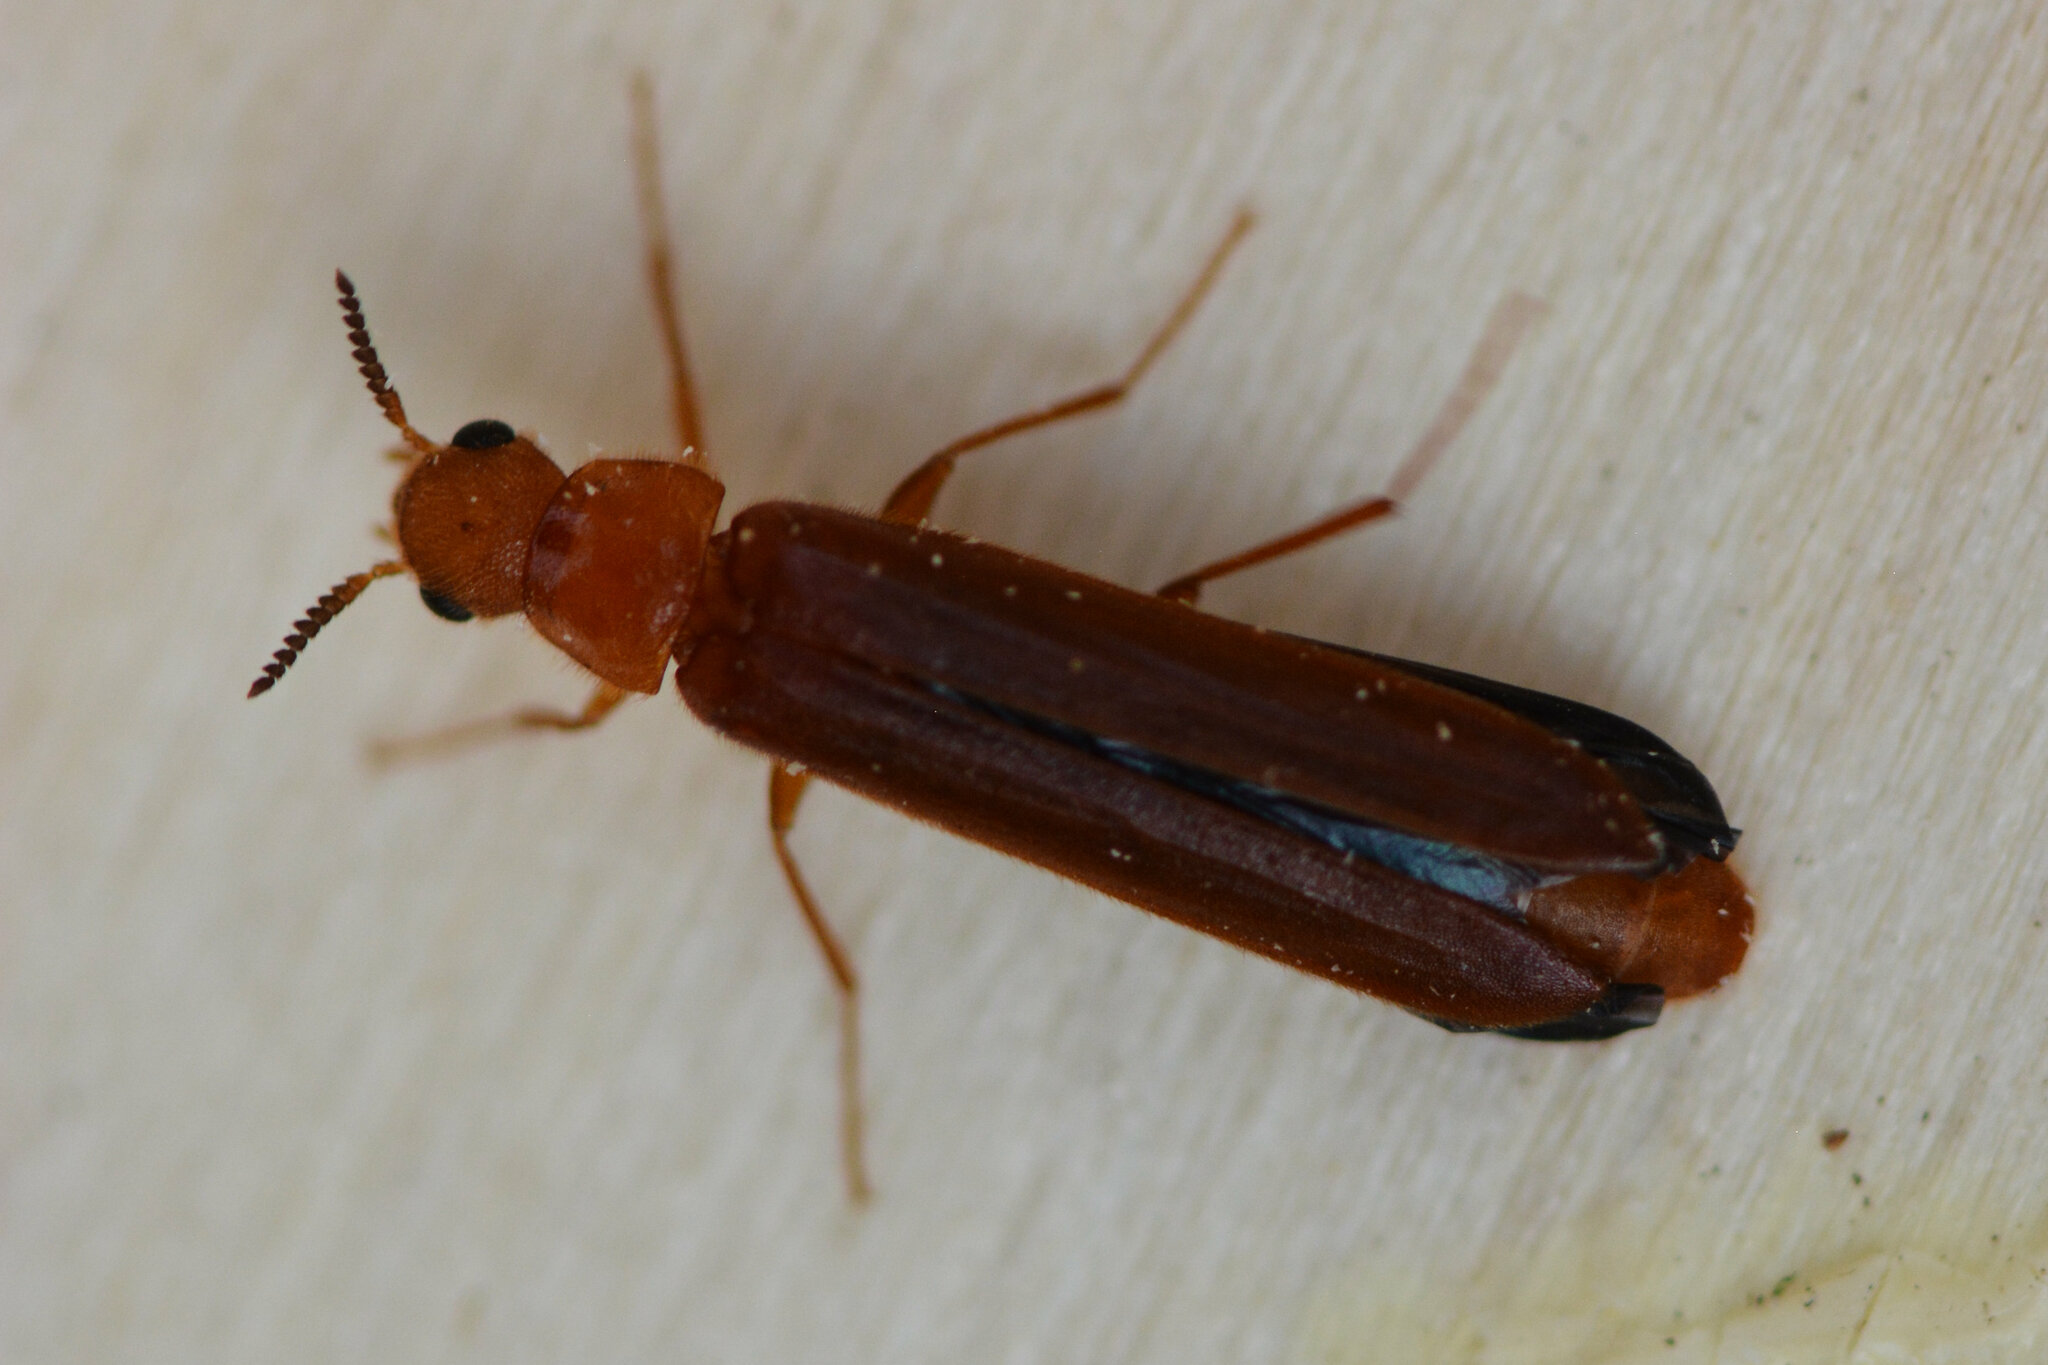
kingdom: Animalia
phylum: Arthropoda
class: Insecta
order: Coleoptera
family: Lymexylidae
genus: Hylecoetus
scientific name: Hylecoetus dermestoides
